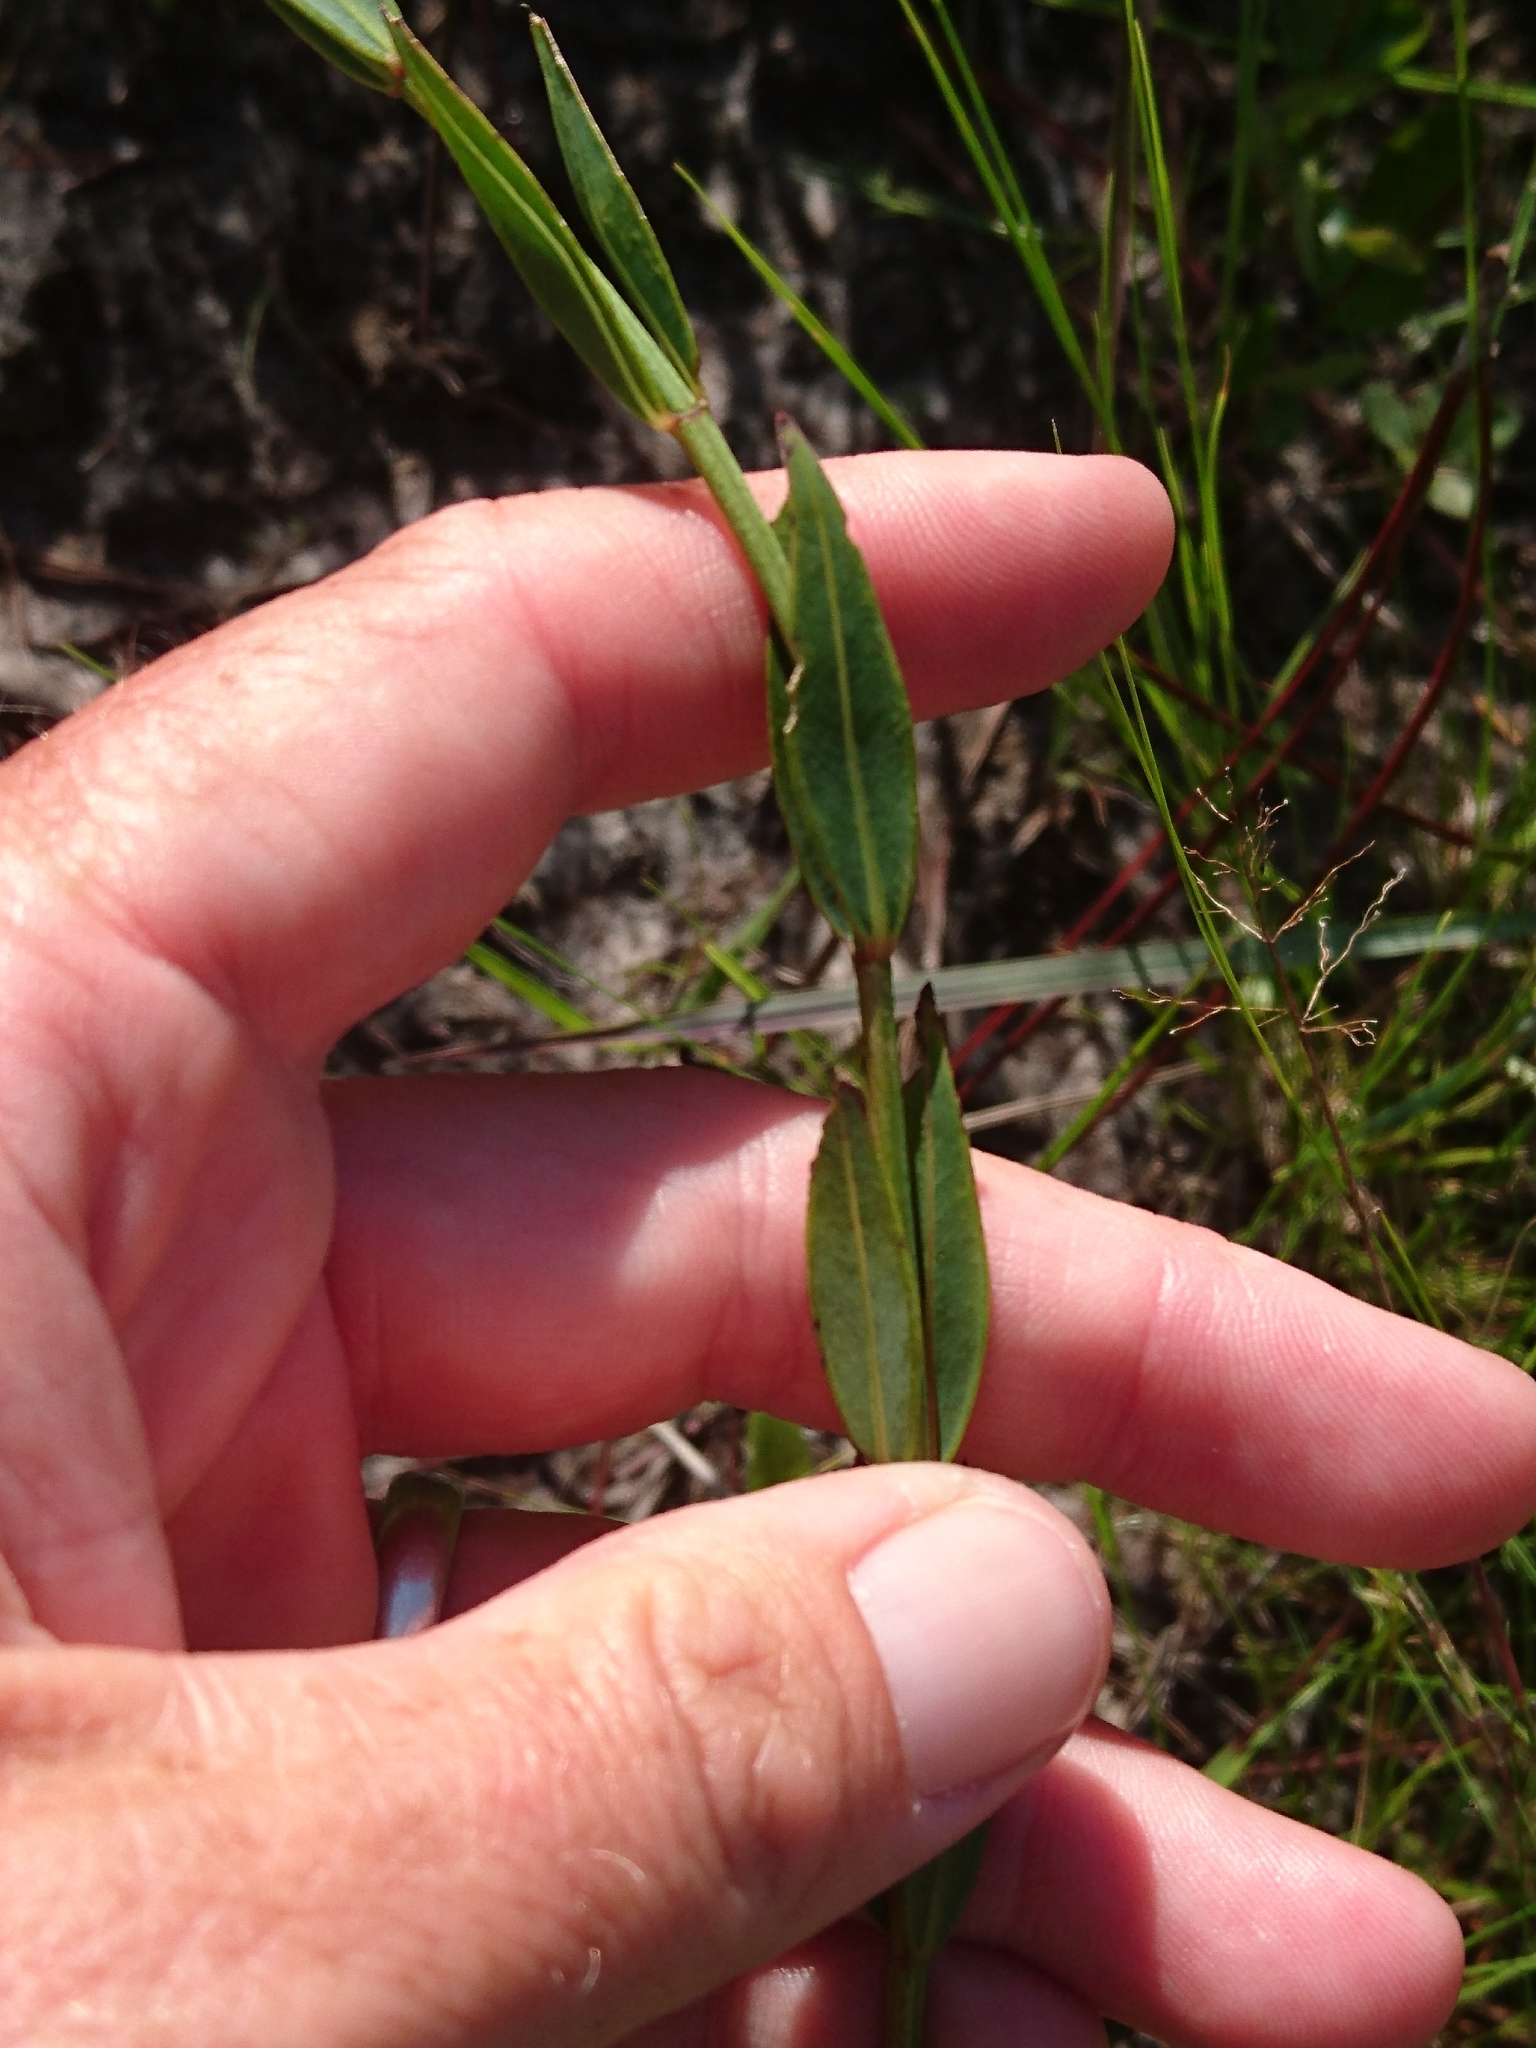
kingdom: Plantae
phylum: Tracheophyta
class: Magnoliopsida
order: Myrtales
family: Melastomataceae
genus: Rhexia
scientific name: Rhexia alifanus
